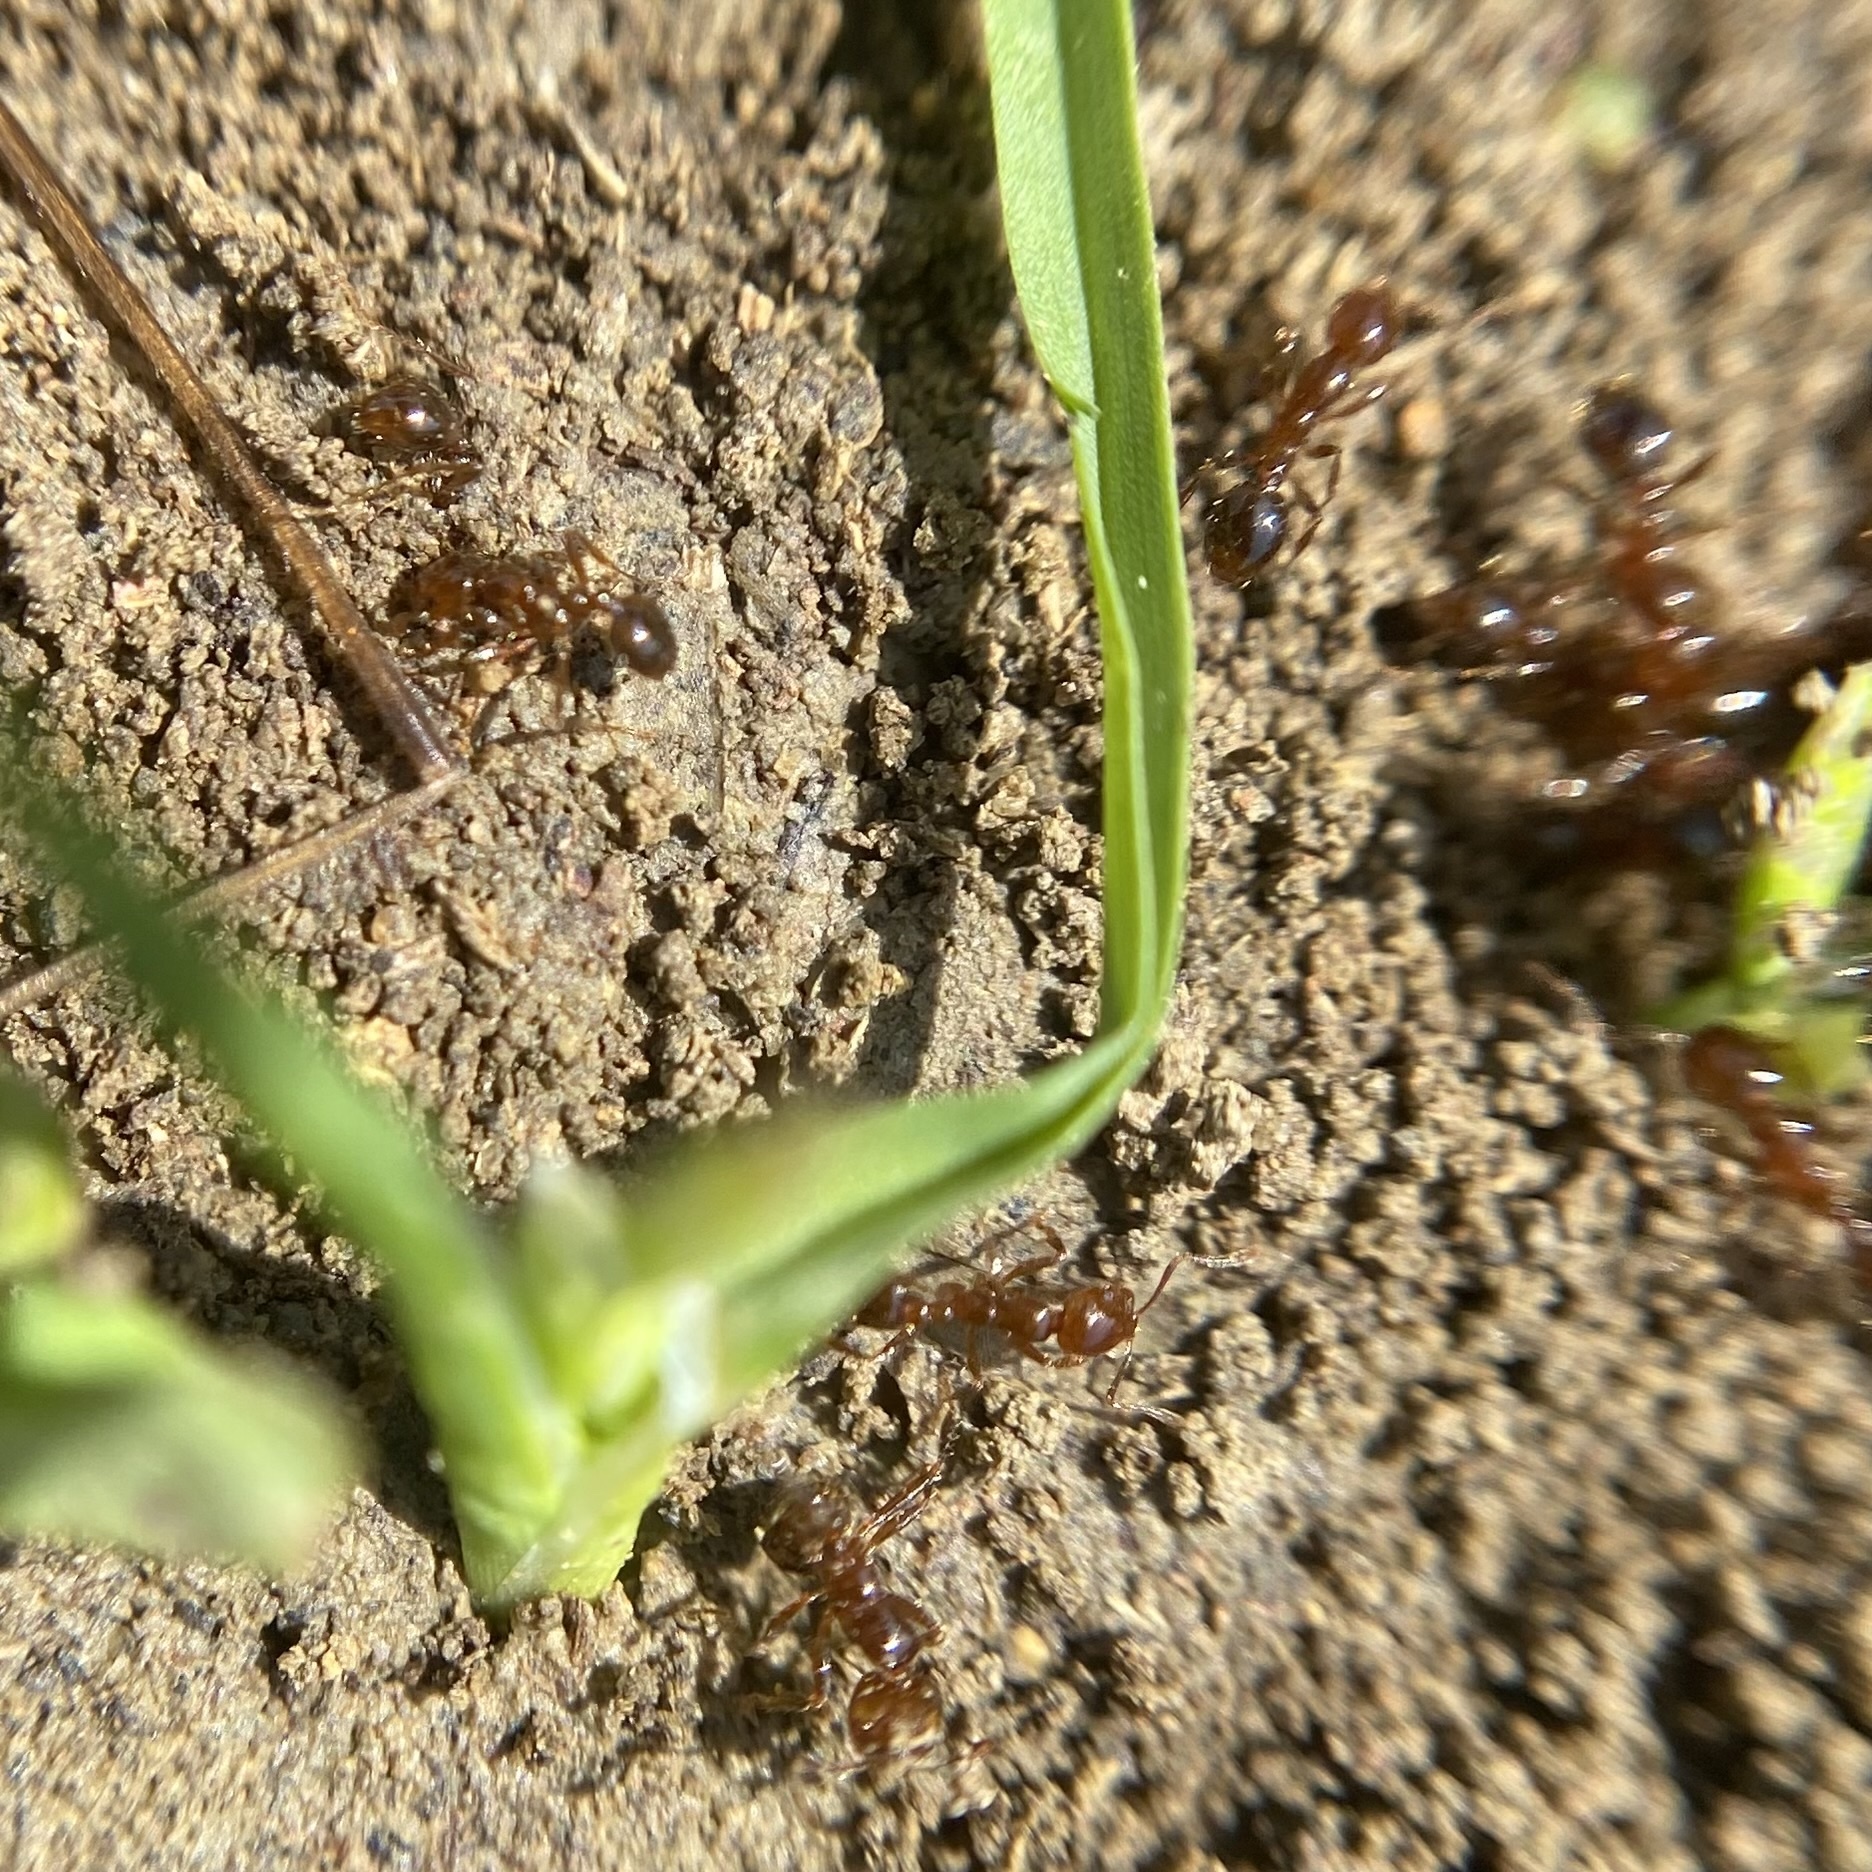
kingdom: Animalia
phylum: Arthropoda
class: Insecta
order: Hymenoptera
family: Formicidae
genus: Solenopsis
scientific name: Solenopsis invicta
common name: Red imported fire ant
